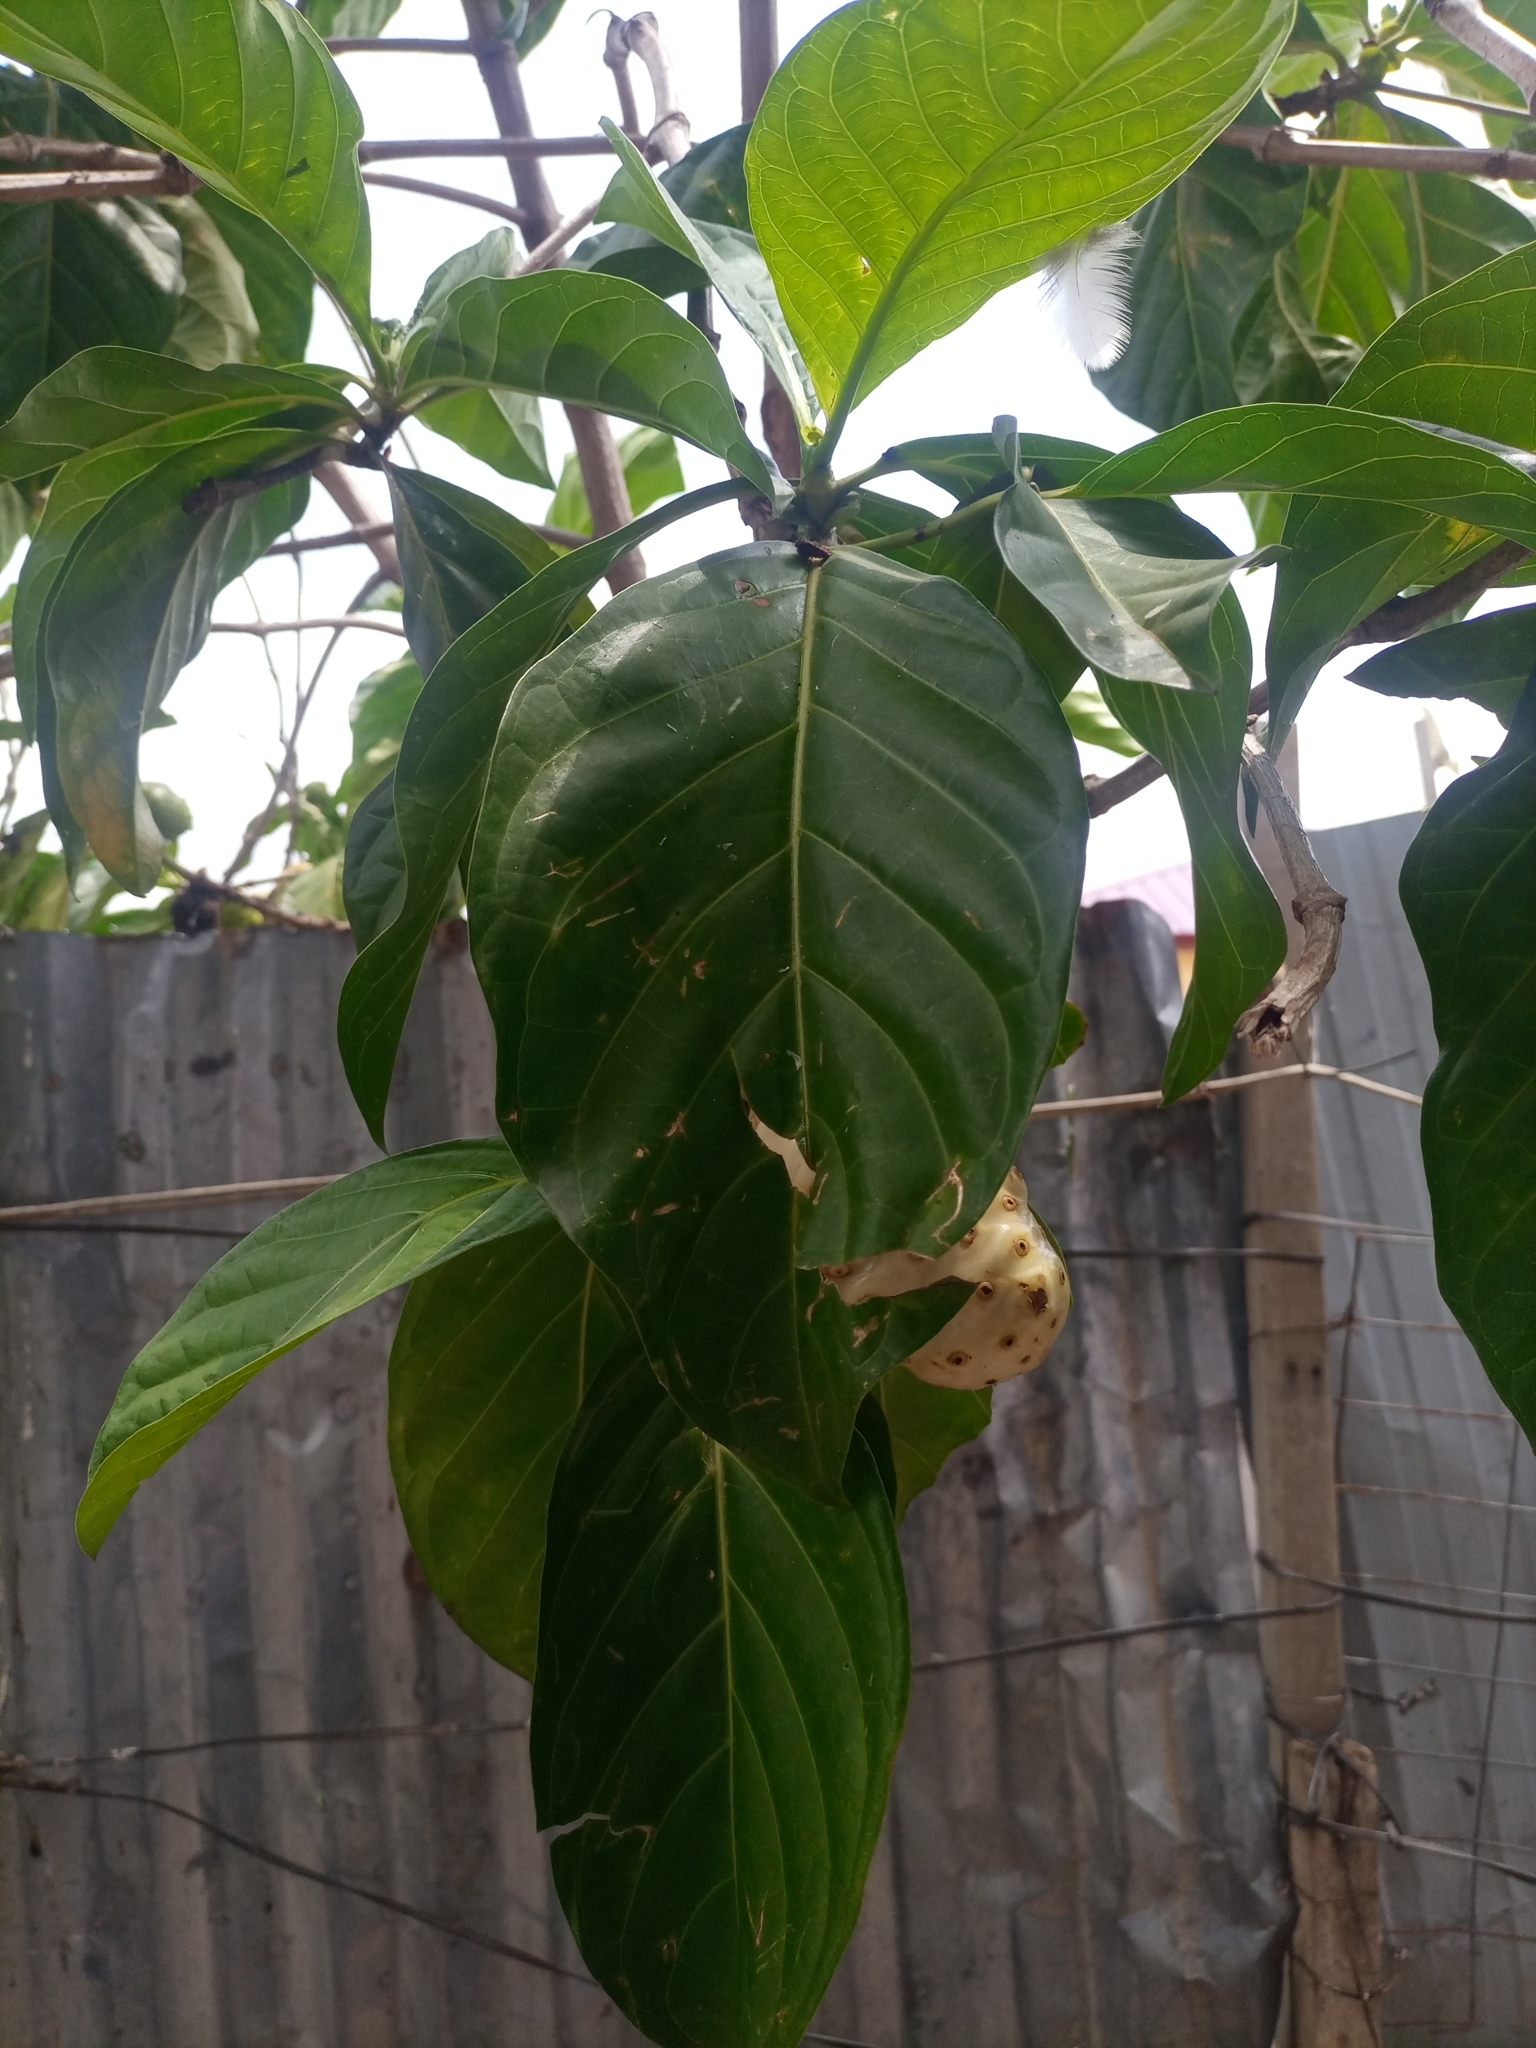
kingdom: Plantae
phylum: Tracheophyta
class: Magnoliopsida
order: Gentianales
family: Rubiaceae
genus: Morinda
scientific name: Morinda citrifolia
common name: Indian-mulberry
